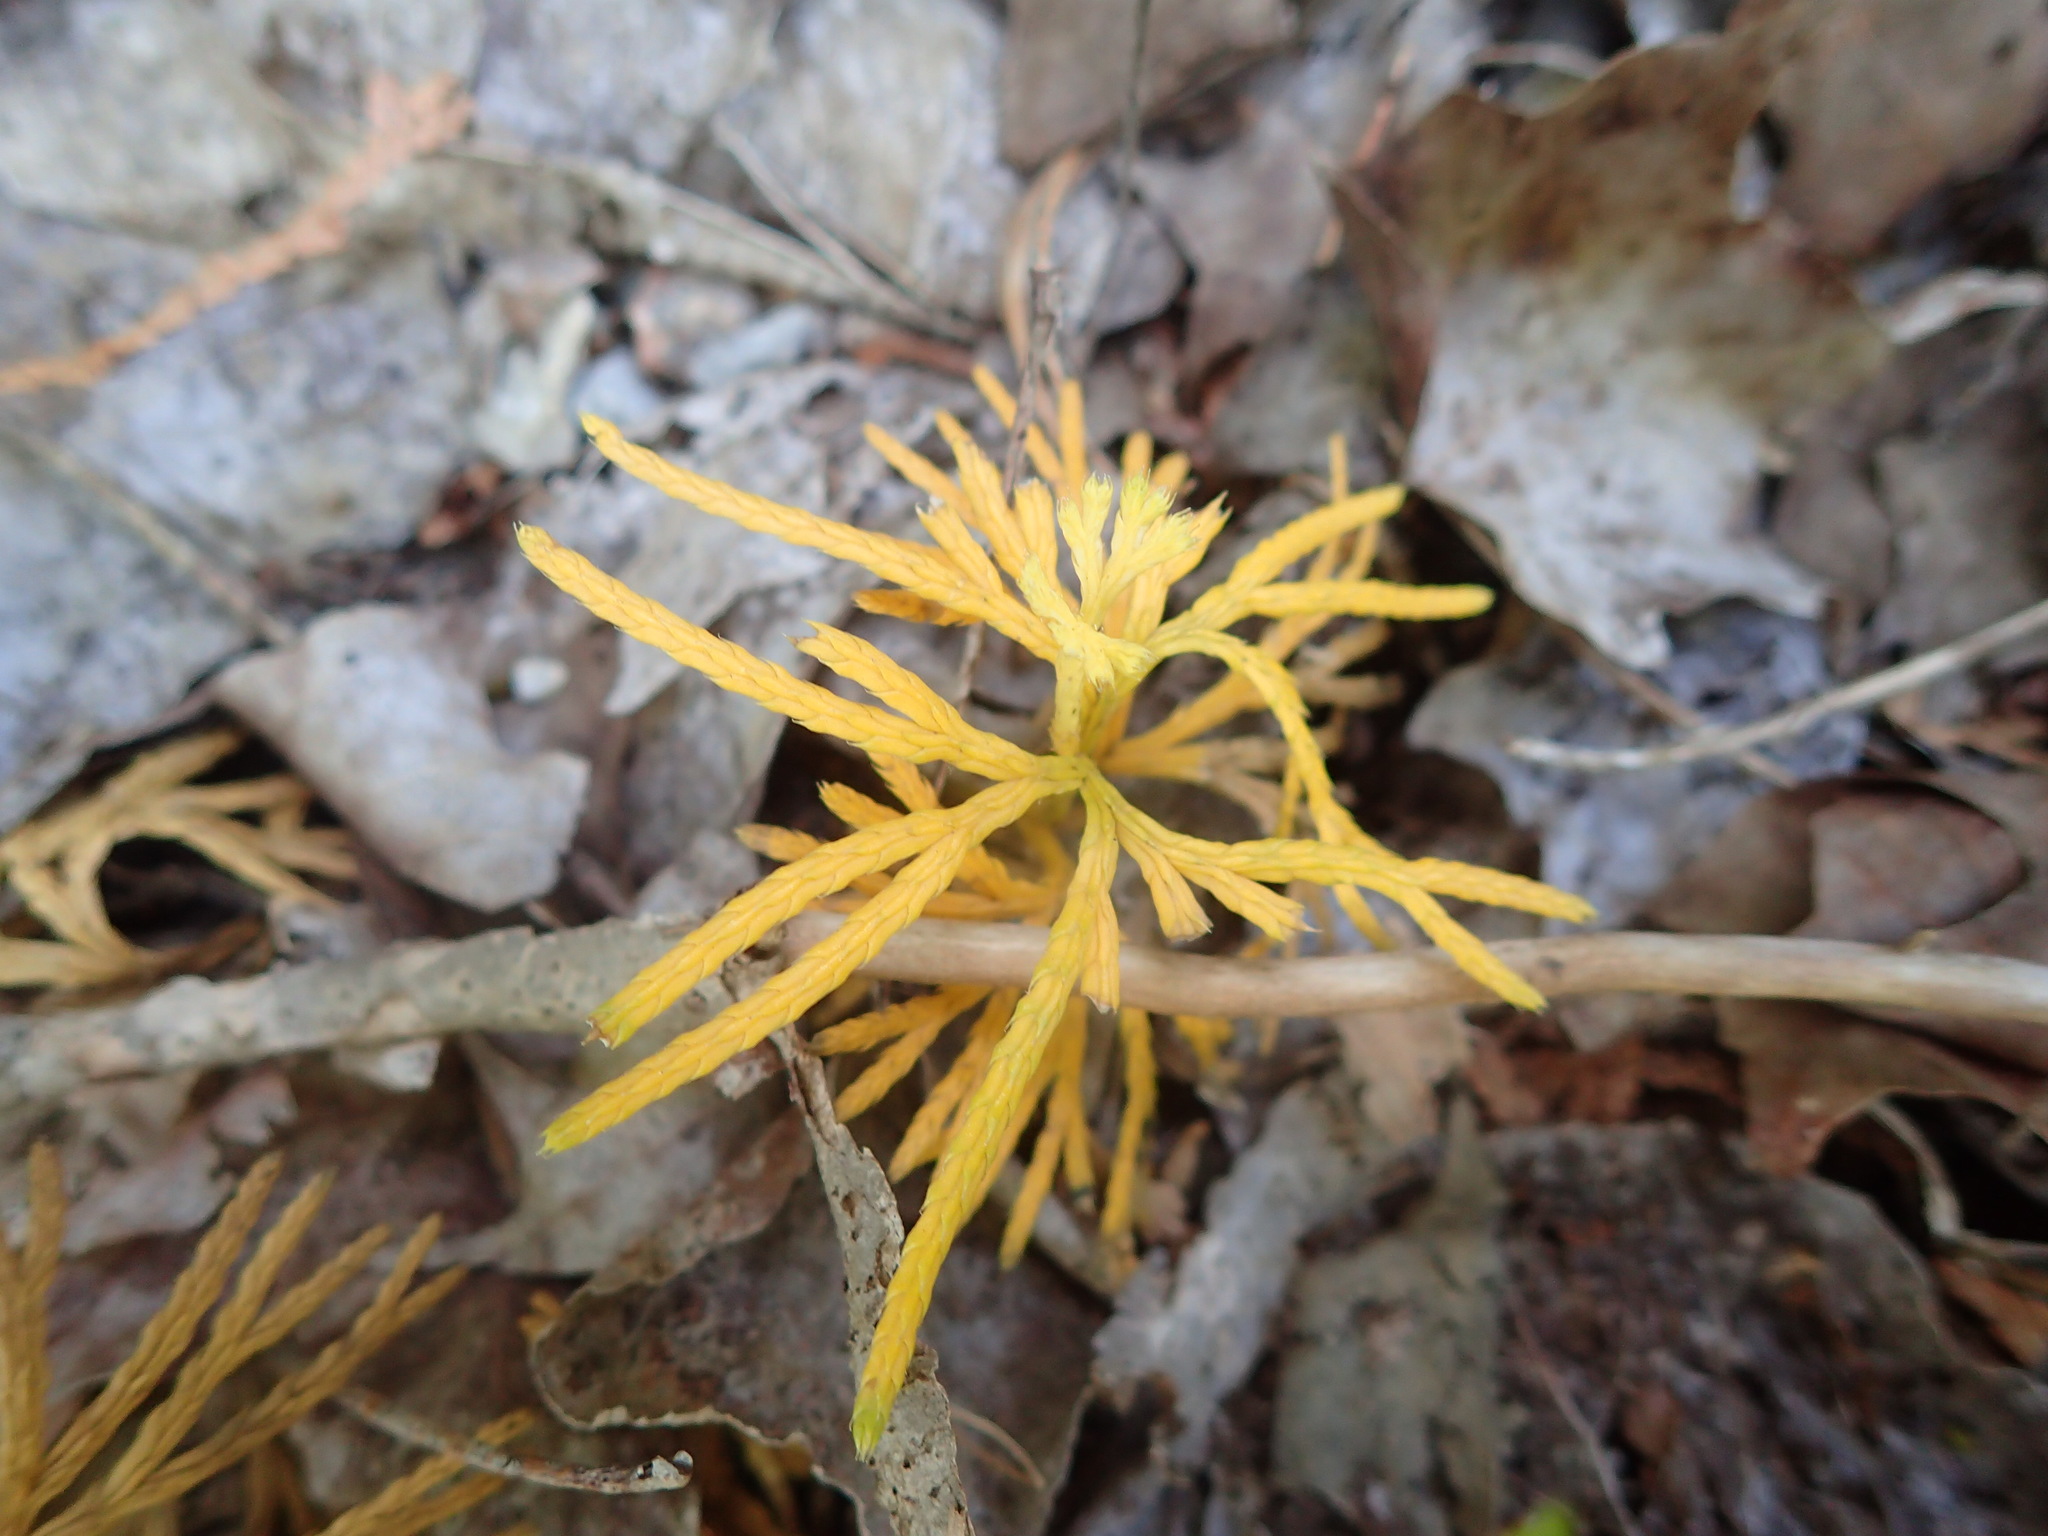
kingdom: Plantae
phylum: Tracheophyta
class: Lycopodiopsida
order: Lycopodiales
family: Lycopodiaceae
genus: Diphasiastrum
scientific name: Diphasiastrum digitatum
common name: Southern running-pine
